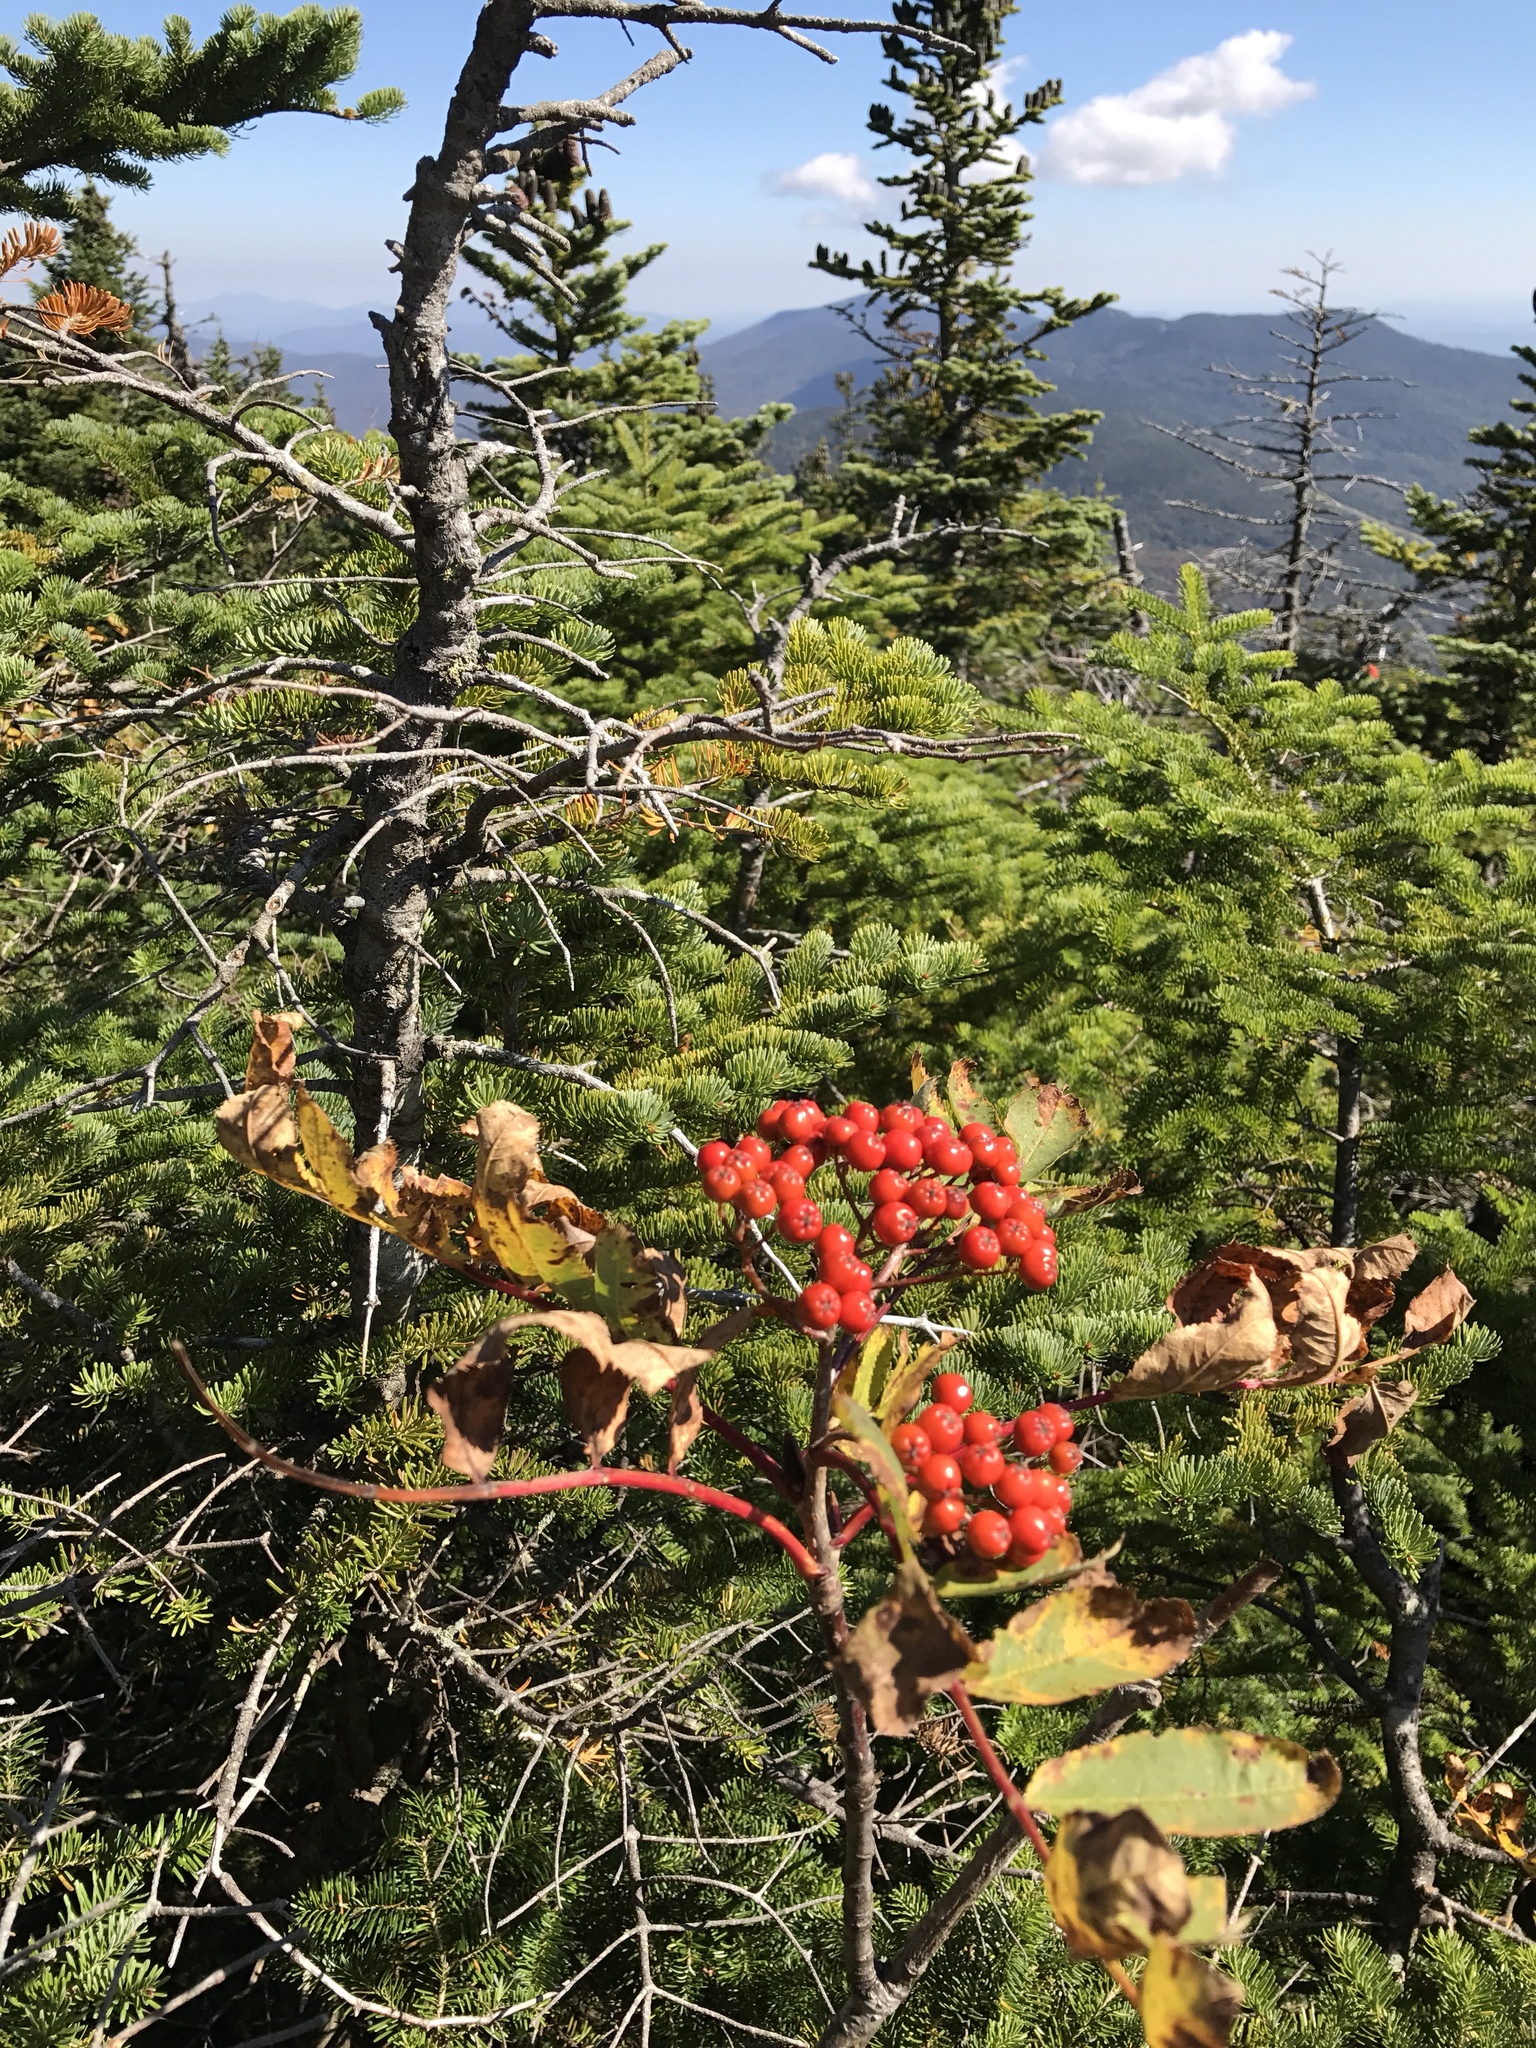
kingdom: Plantae
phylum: Tracheophyta
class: Magnoliopsida
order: Rosales
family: Rosaceae
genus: Sorbus
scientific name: Sorbus americana
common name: American mountain-ash
